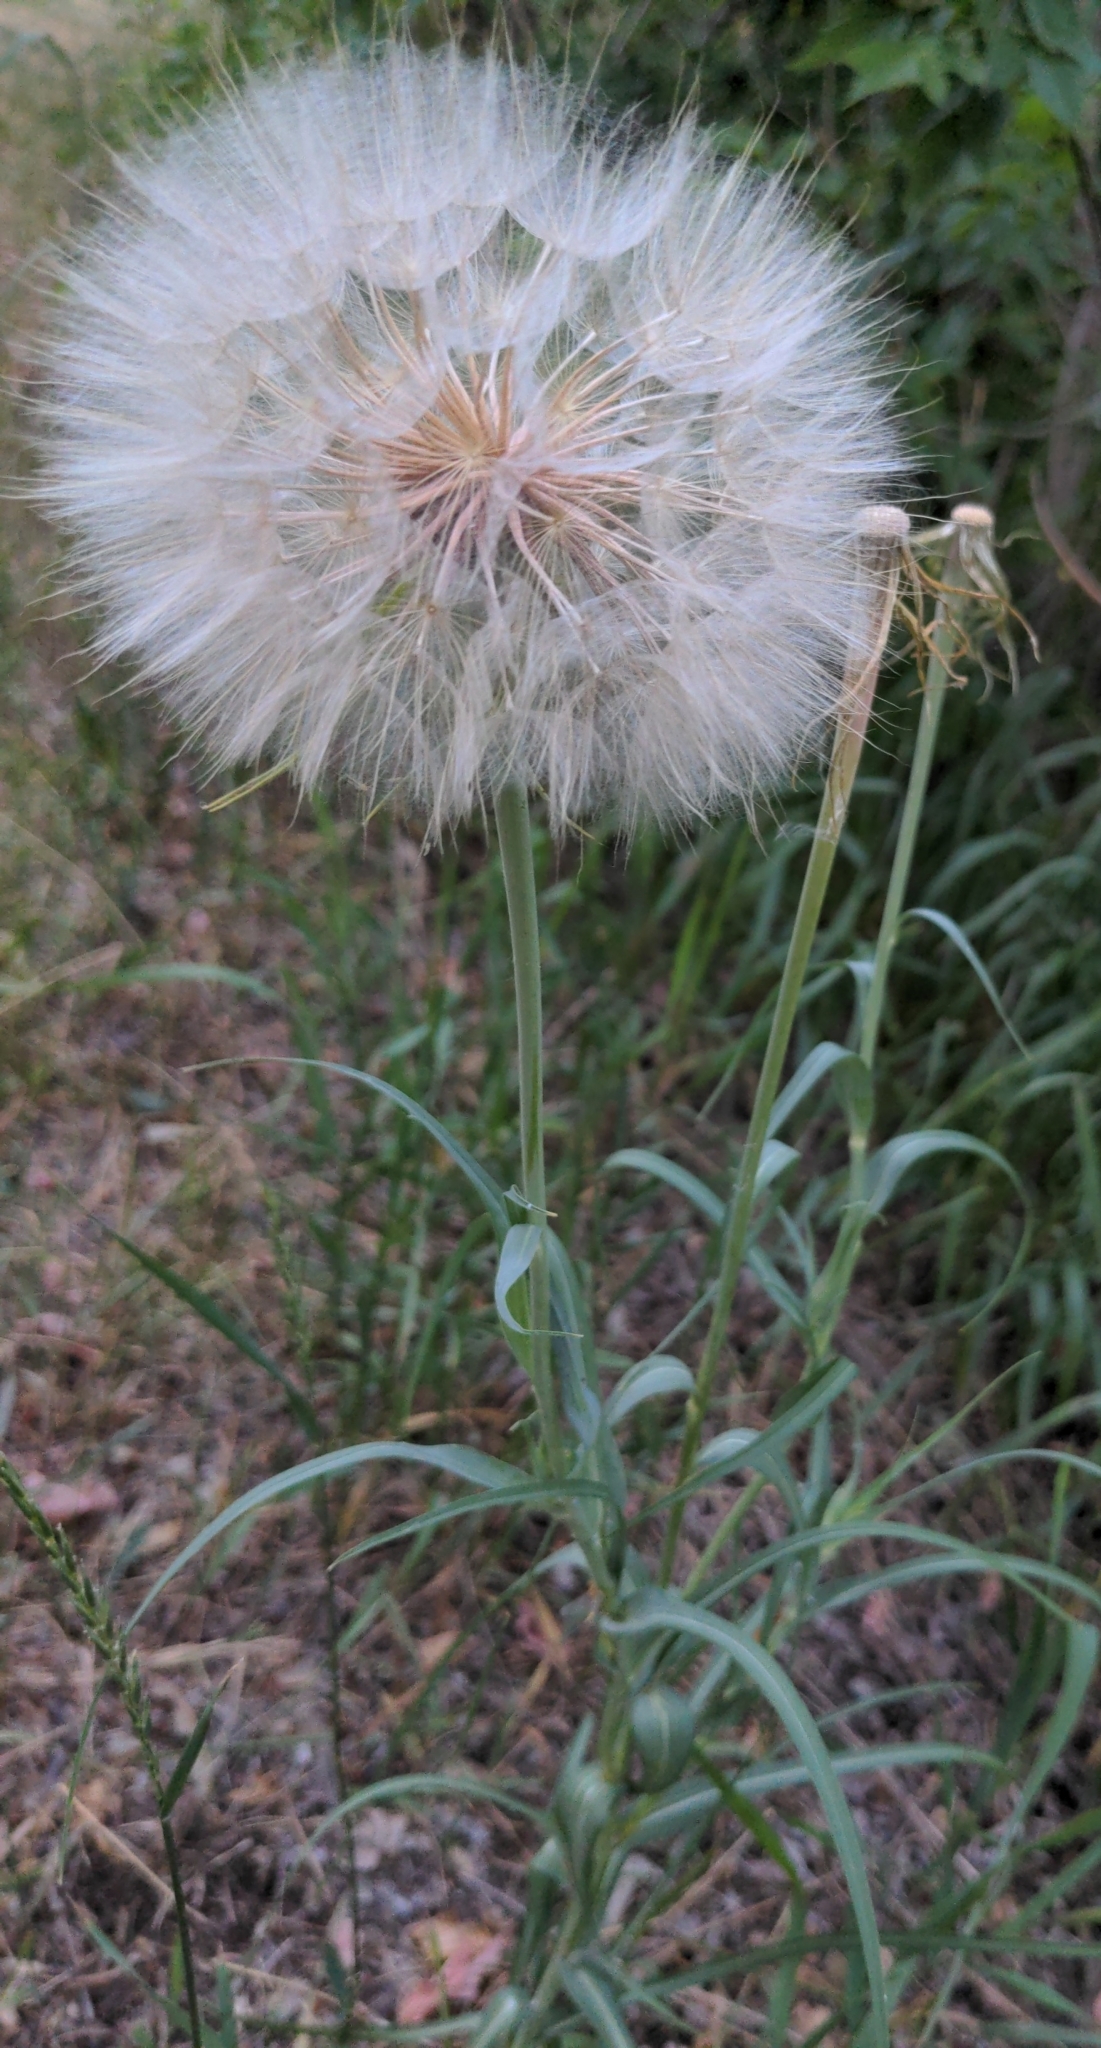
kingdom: Plantae
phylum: Tracheophyta
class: Magnoliopsida
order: Asterales
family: Asteraceae
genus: Tragopogon
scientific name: Tragopogon dubius
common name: Yellow salsify
